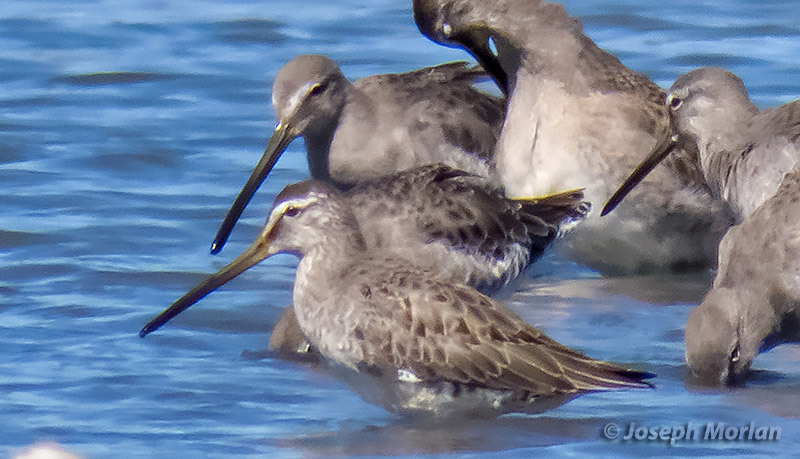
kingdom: Animalia
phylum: Chordata
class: Aves
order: Charadriiformes
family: Scolopacidae
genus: Limnodromus
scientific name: Limnodromus scolopaceus
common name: Long-billed dowitcher
